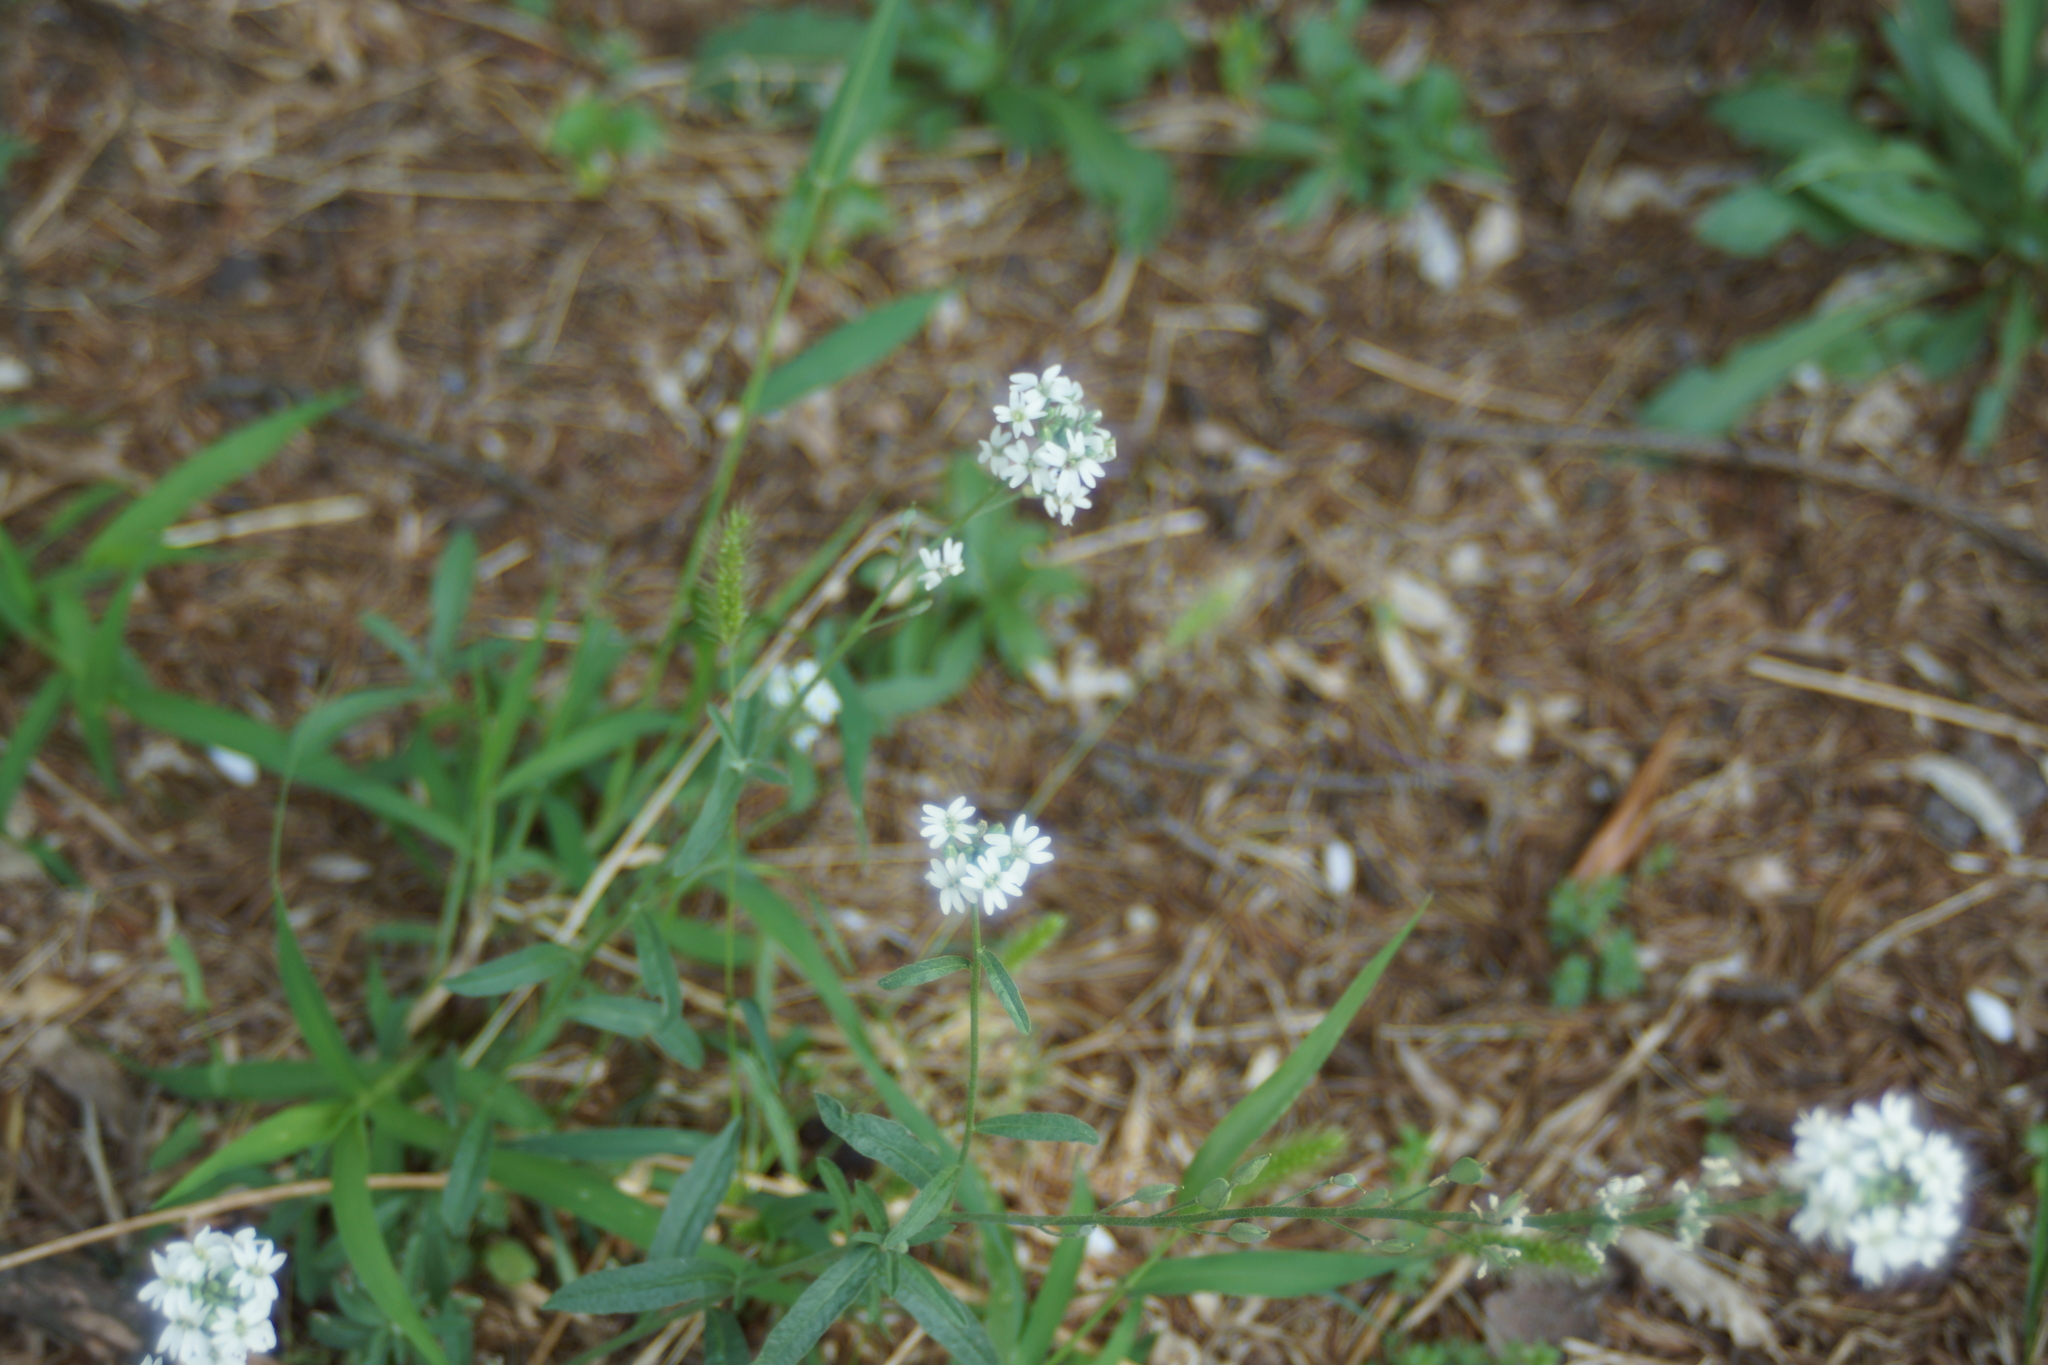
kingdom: Plantae
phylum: Tracheophyta
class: Magnoliopsida
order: Brassicales
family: Brassicaceae
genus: Berteroa
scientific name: Berteroa incana
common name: Hoary alison
